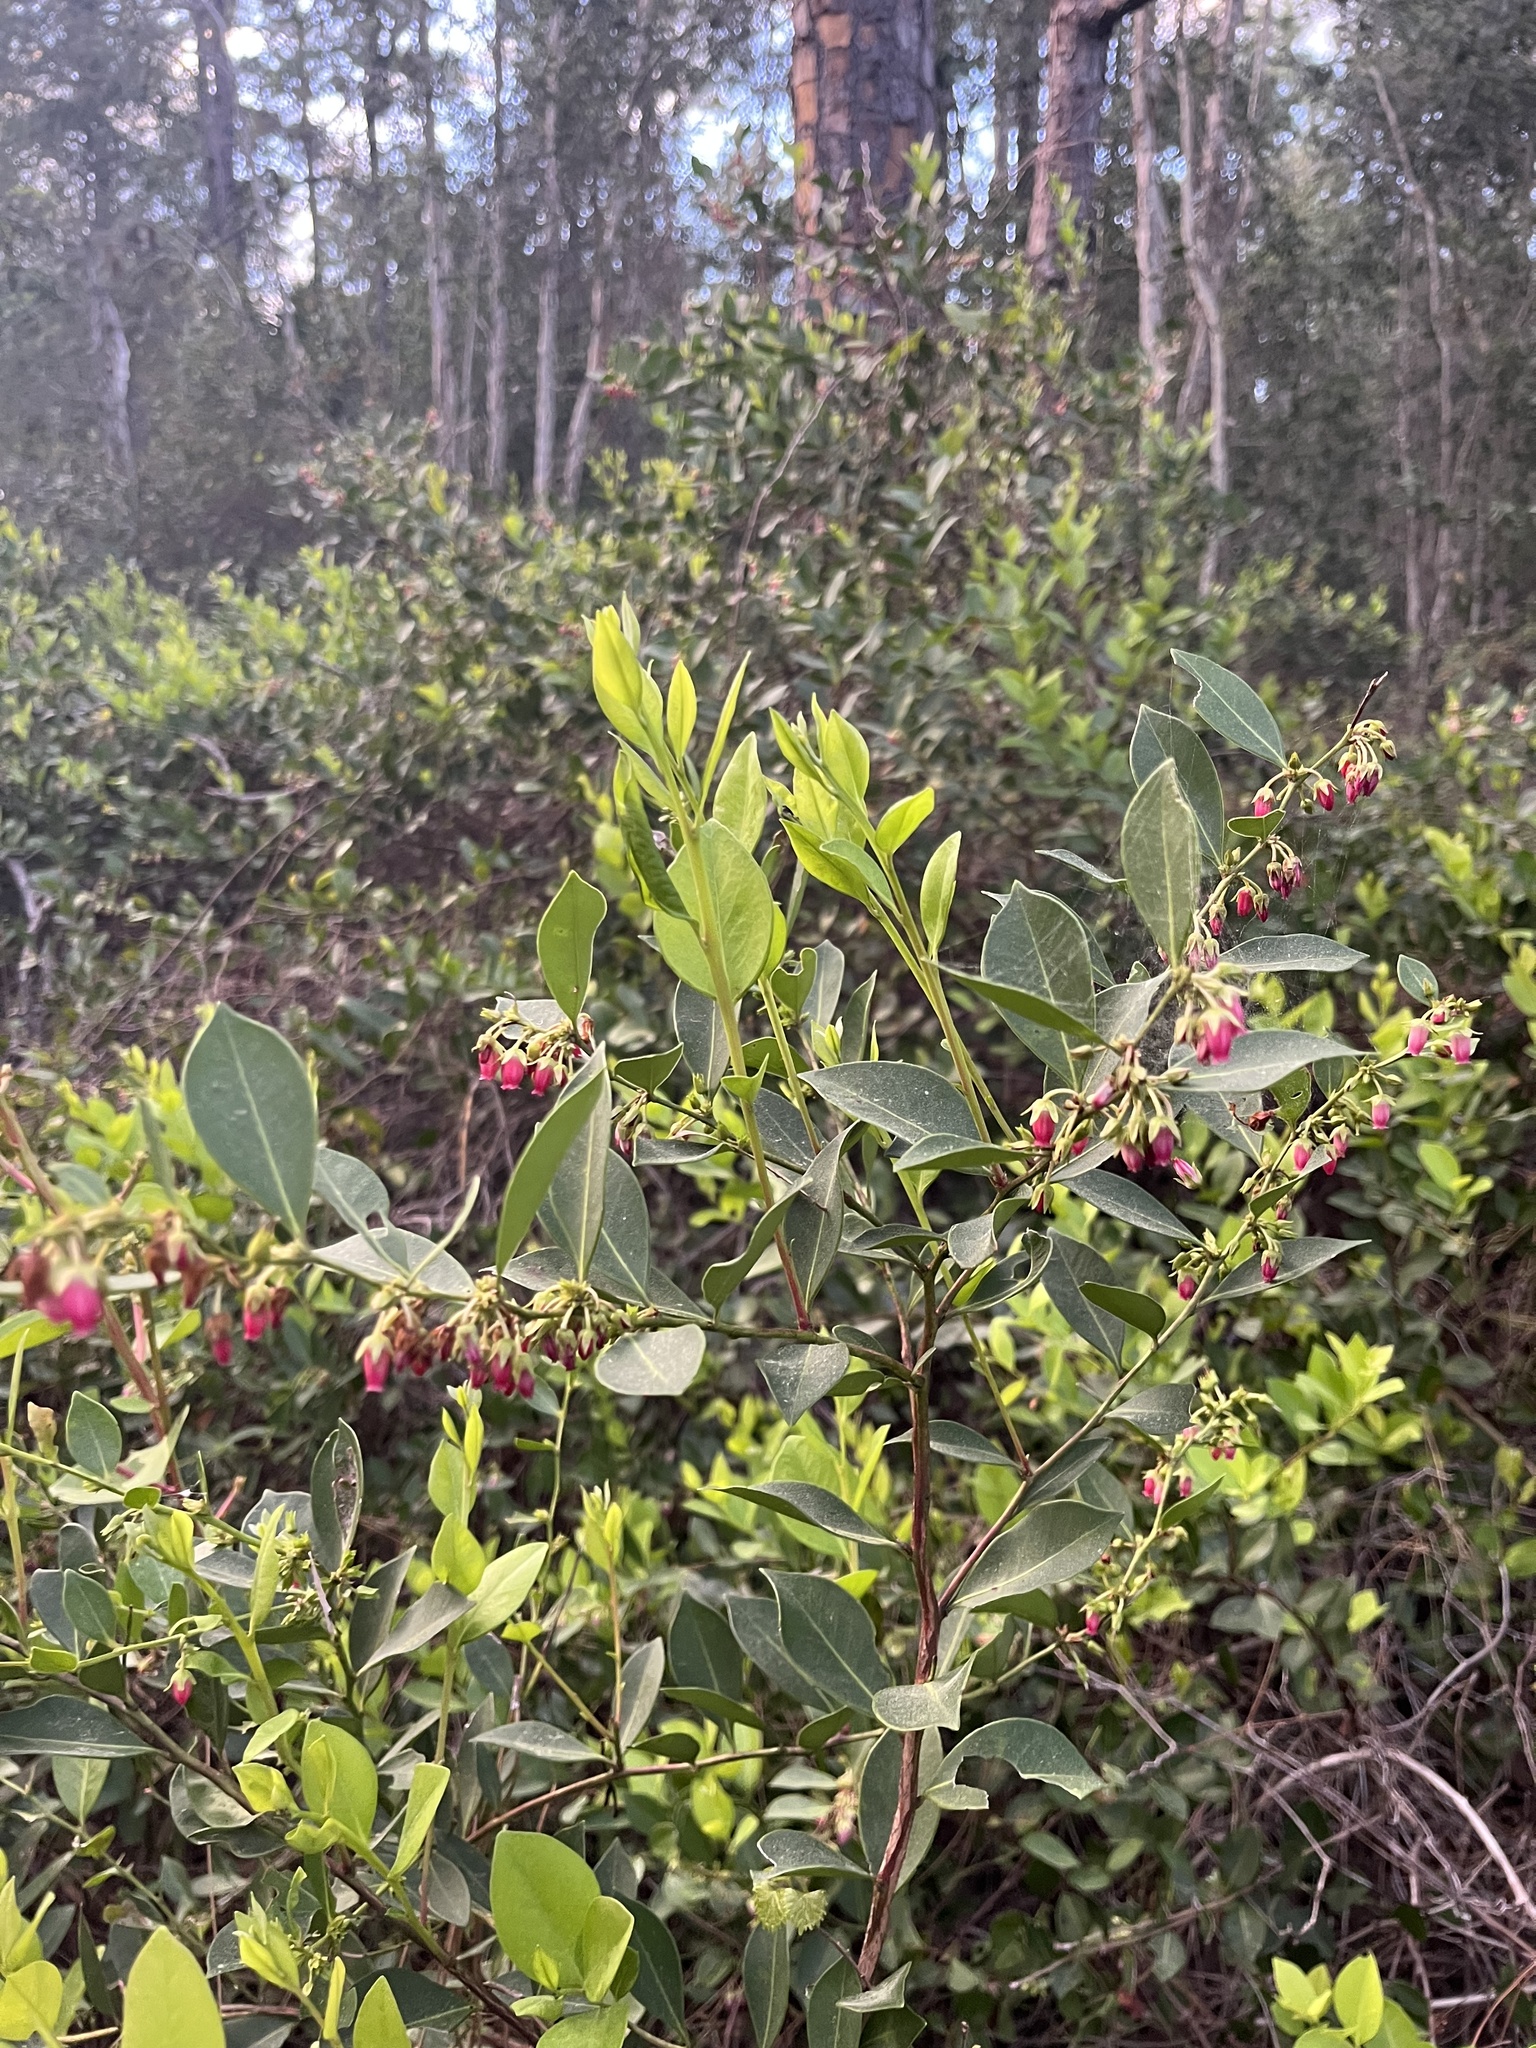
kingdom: Plantae
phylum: Tracheophyta
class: Magnoliopsida
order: Ericales
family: Ericaceae
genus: Lyonia
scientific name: Lyonia lucida
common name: Fetterbush
